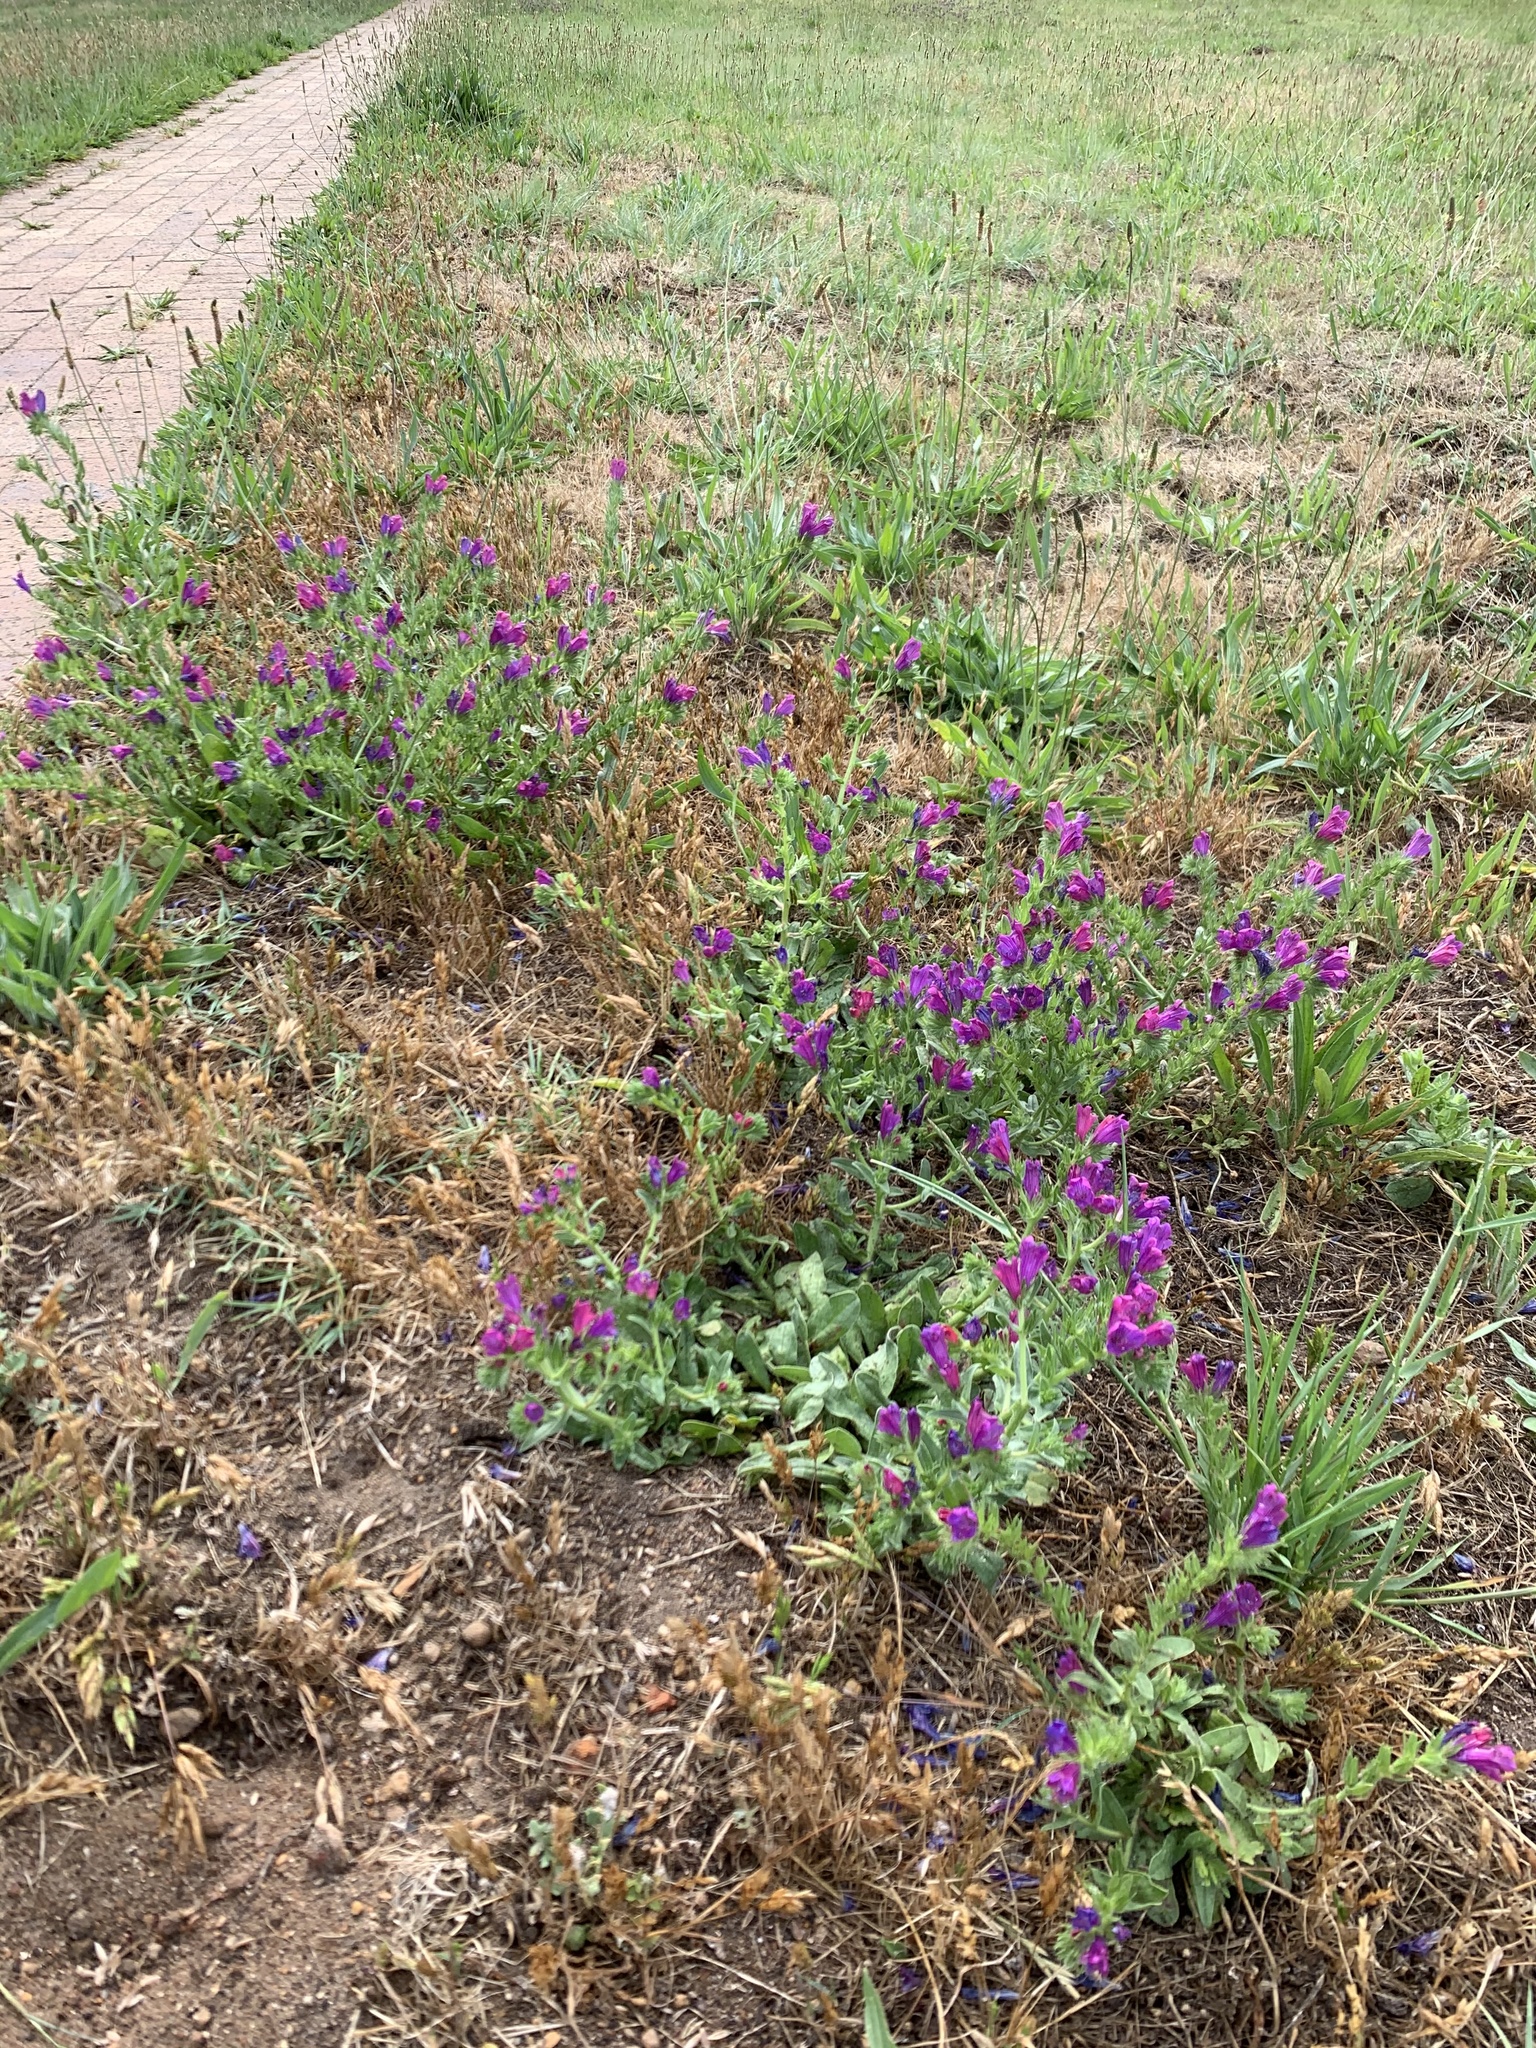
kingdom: Plantae
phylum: Tracheophyta
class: Magnoliopsida
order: Boraginales
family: Boraginaceae
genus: Echium
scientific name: Echium plantagineum
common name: Purple viper's-bugloss
